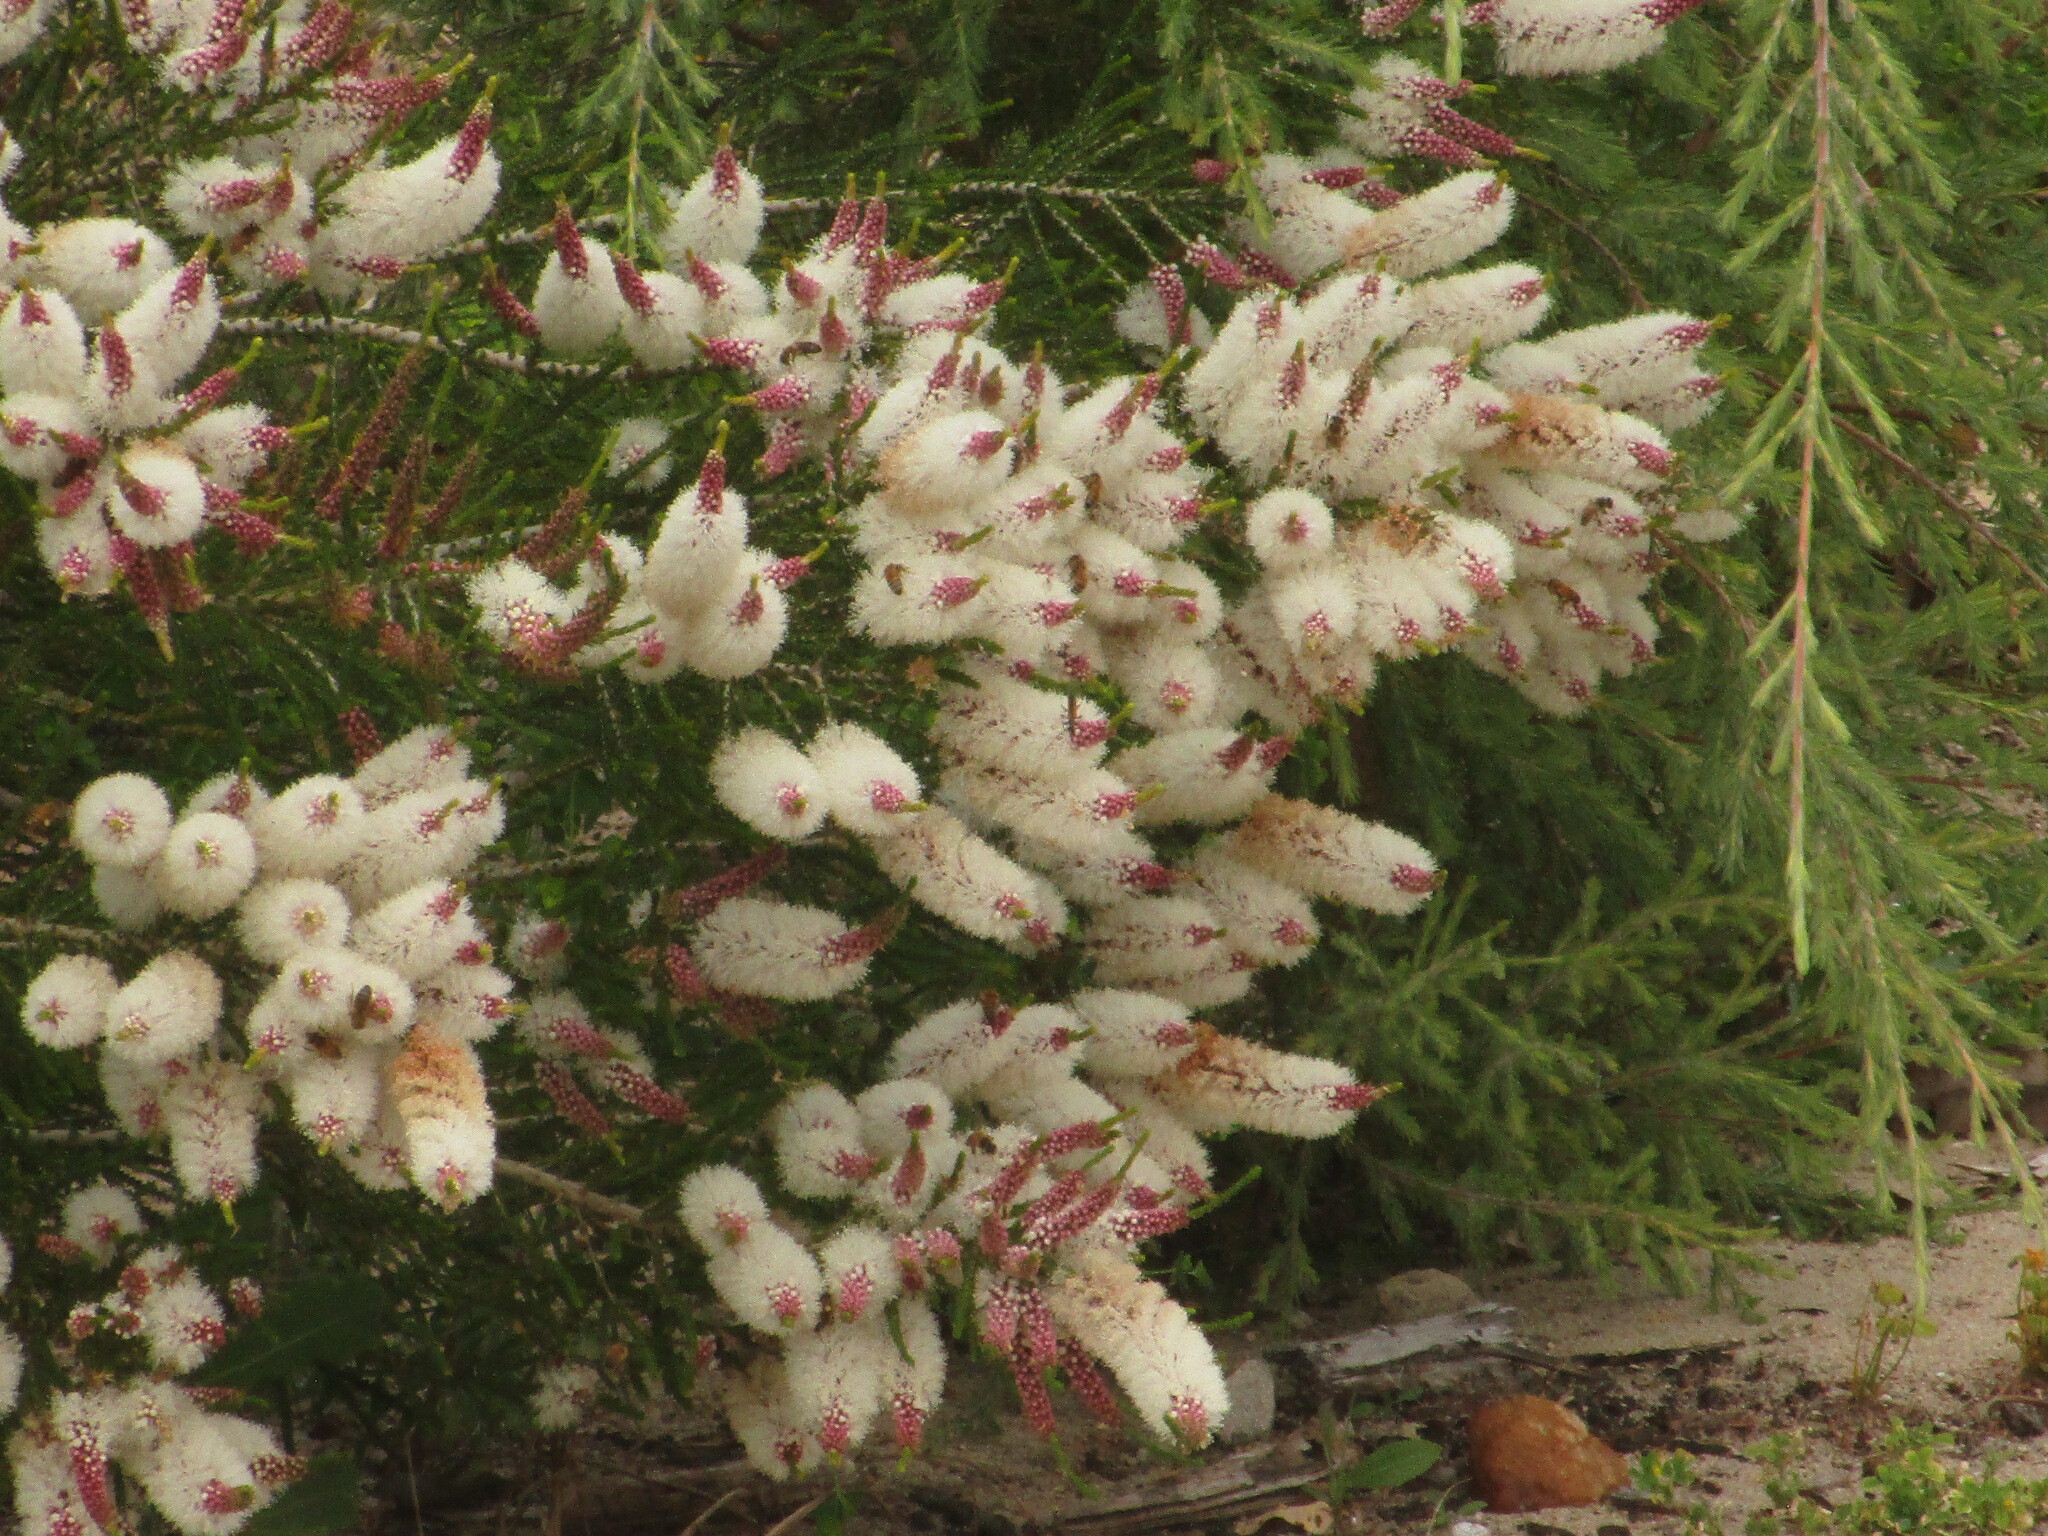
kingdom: Plantae
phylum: Tracheophyta
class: Magnoliopsida
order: Myrtales
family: Myrtaceae
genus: Melaleuca
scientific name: Melaleuca huegelii
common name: Chenille honey myrtle
